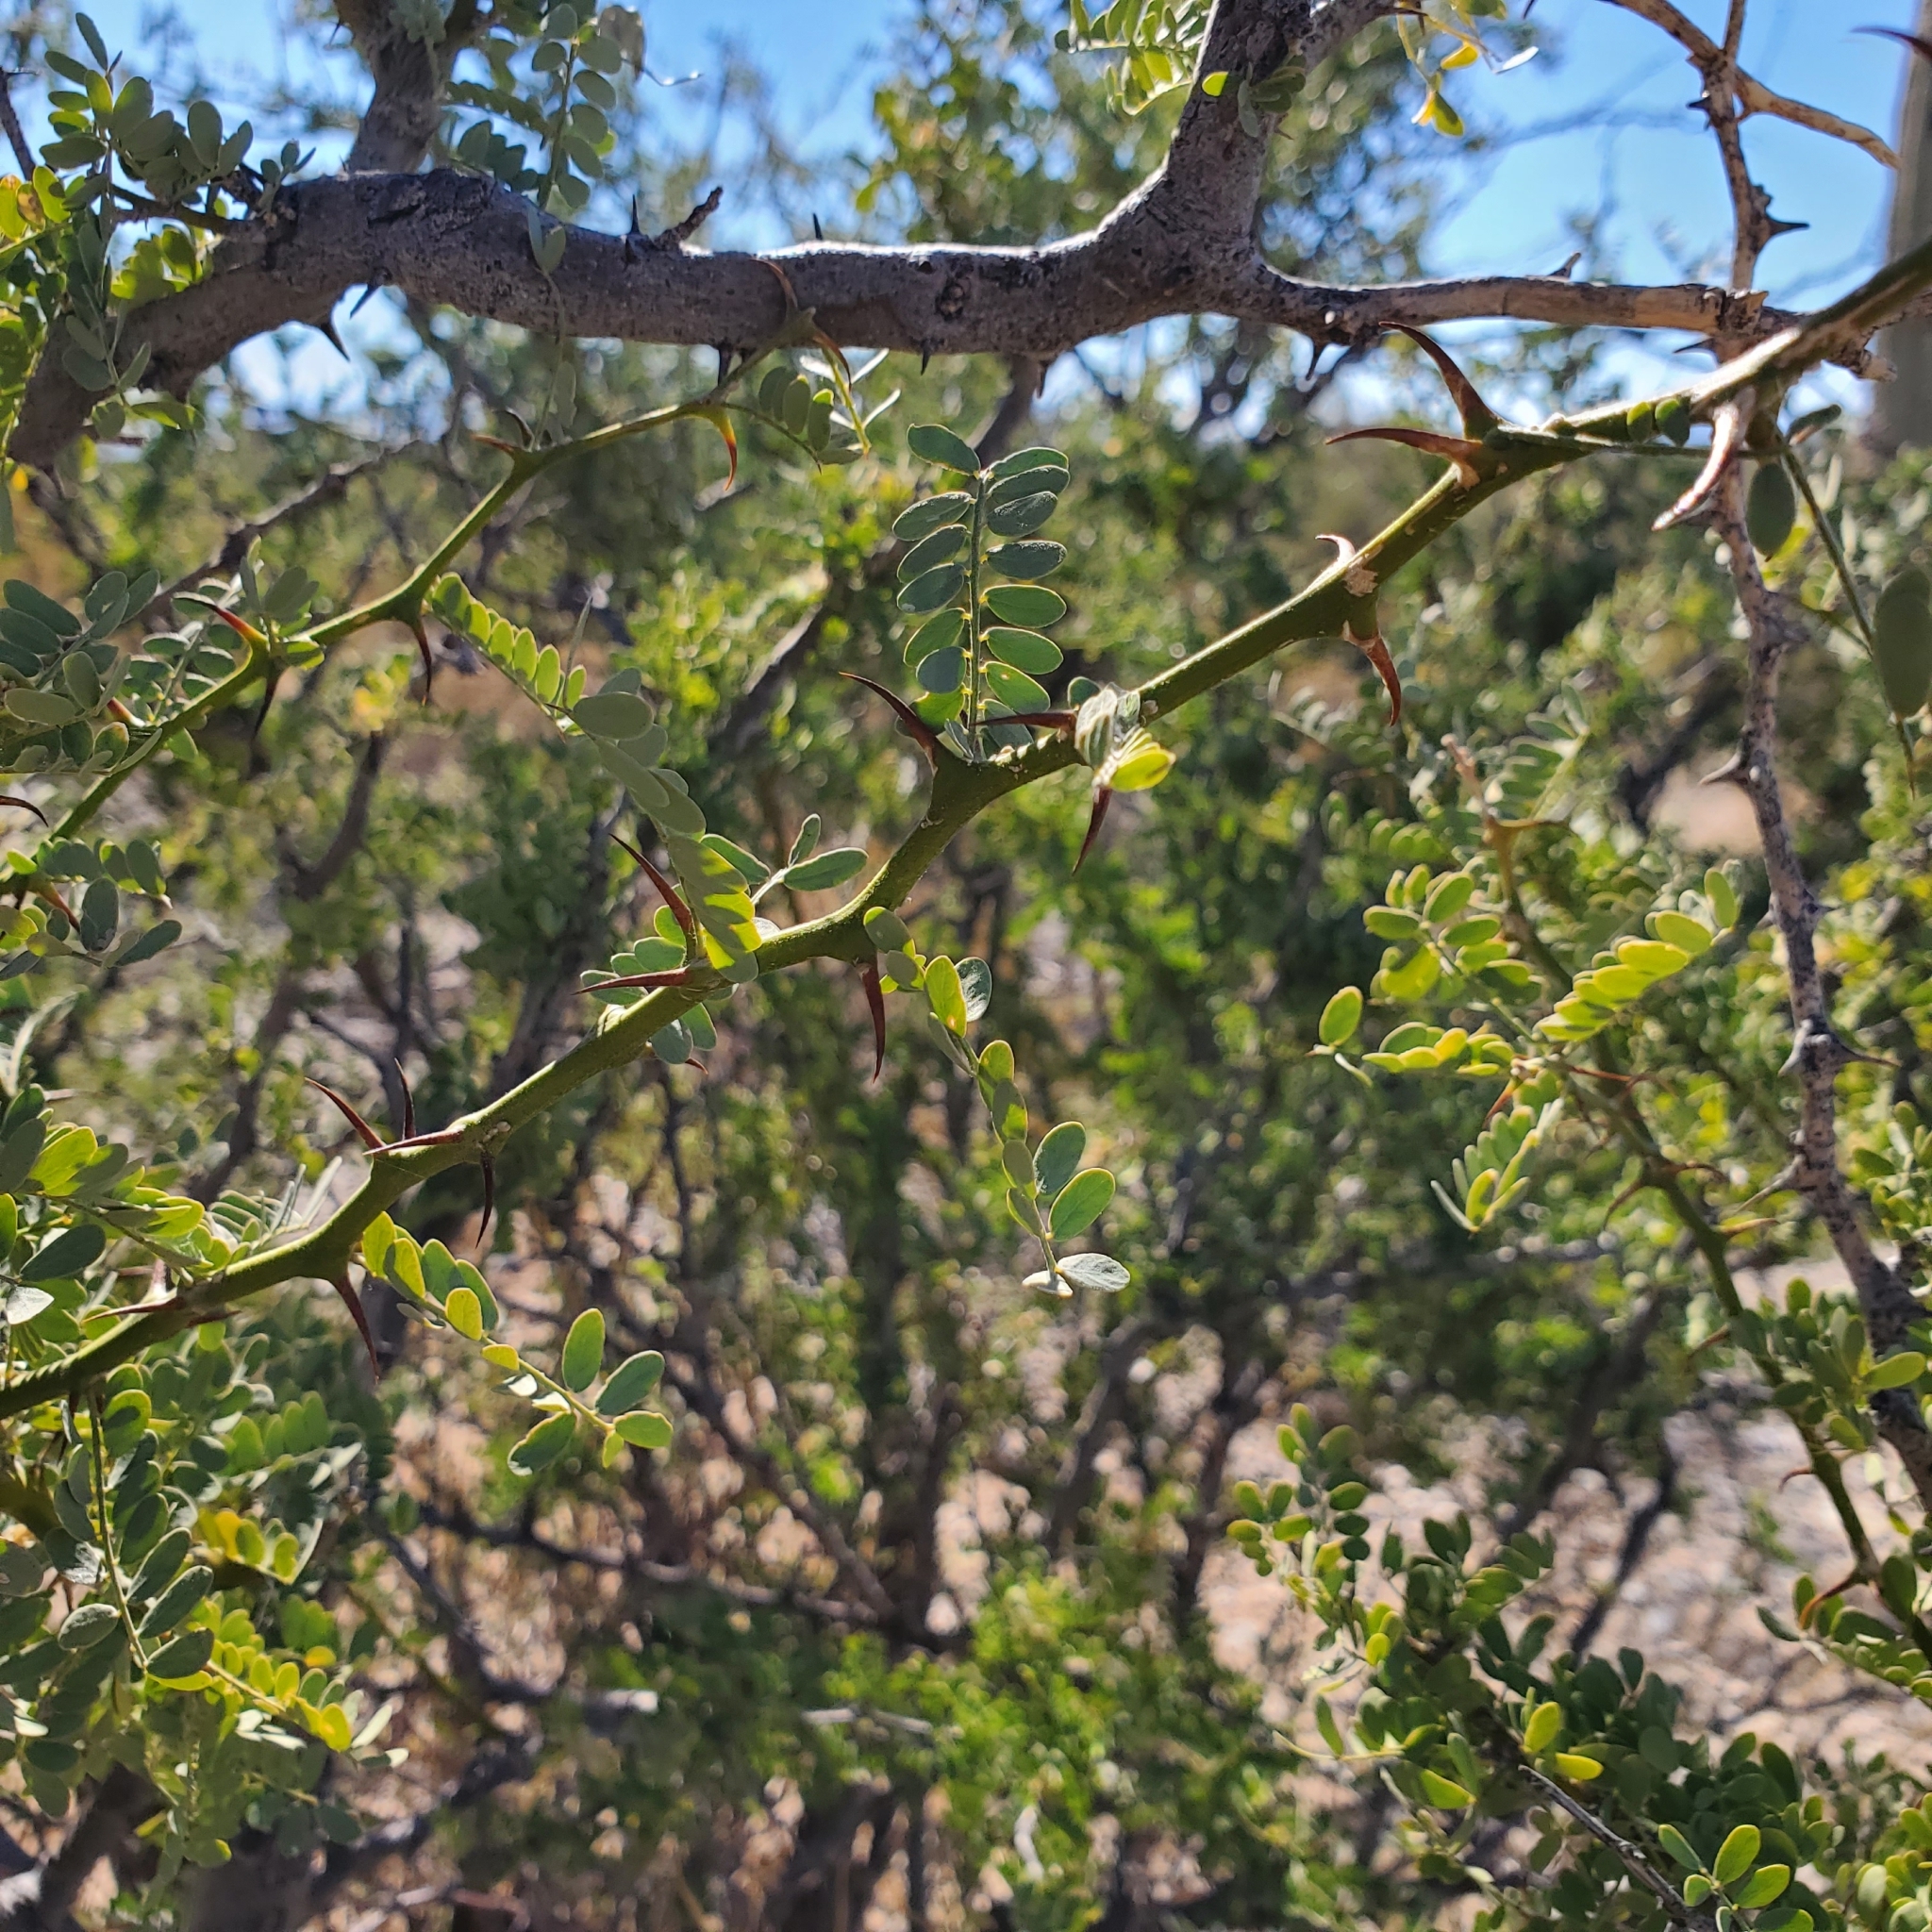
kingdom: Plantae
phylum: Tracheophyta
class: Magnoliopsida
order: Fabales
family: Fabaceae
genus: Olneya
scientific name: Olneya tesota
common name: Desert ironwood
